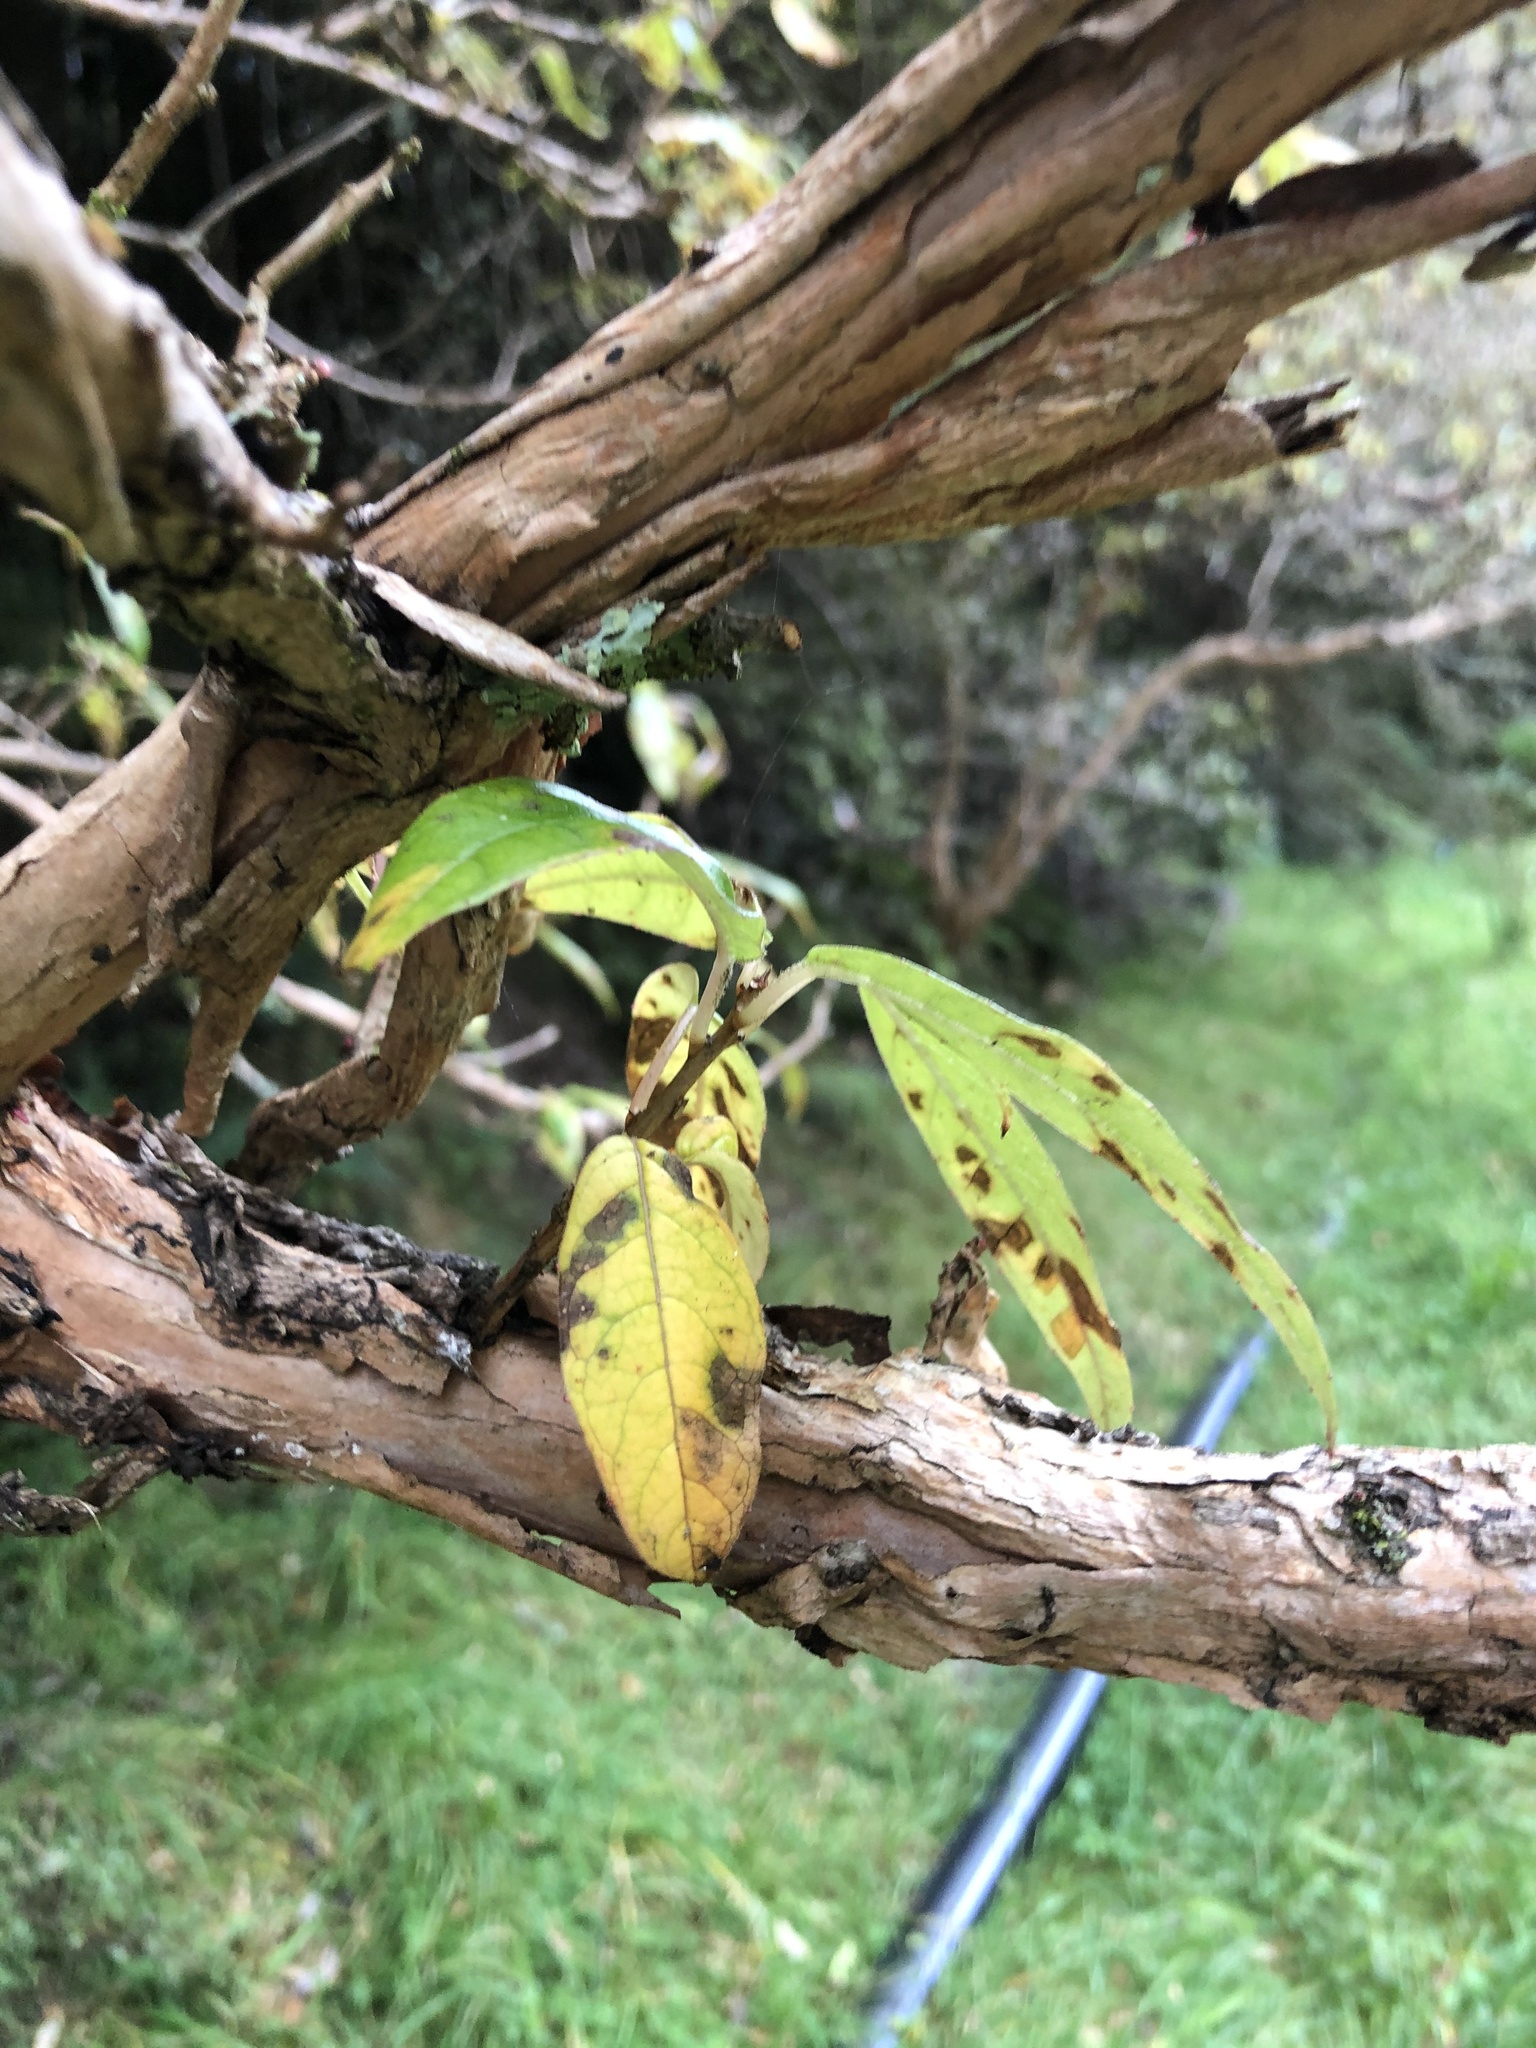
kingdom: Plantae
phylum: Tracheophyta
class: Magnoliopsida
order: Myrtales
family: Onagraceae
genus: Fuchsia
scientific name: Fuchsia excorticata
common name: Tree fuchsia
